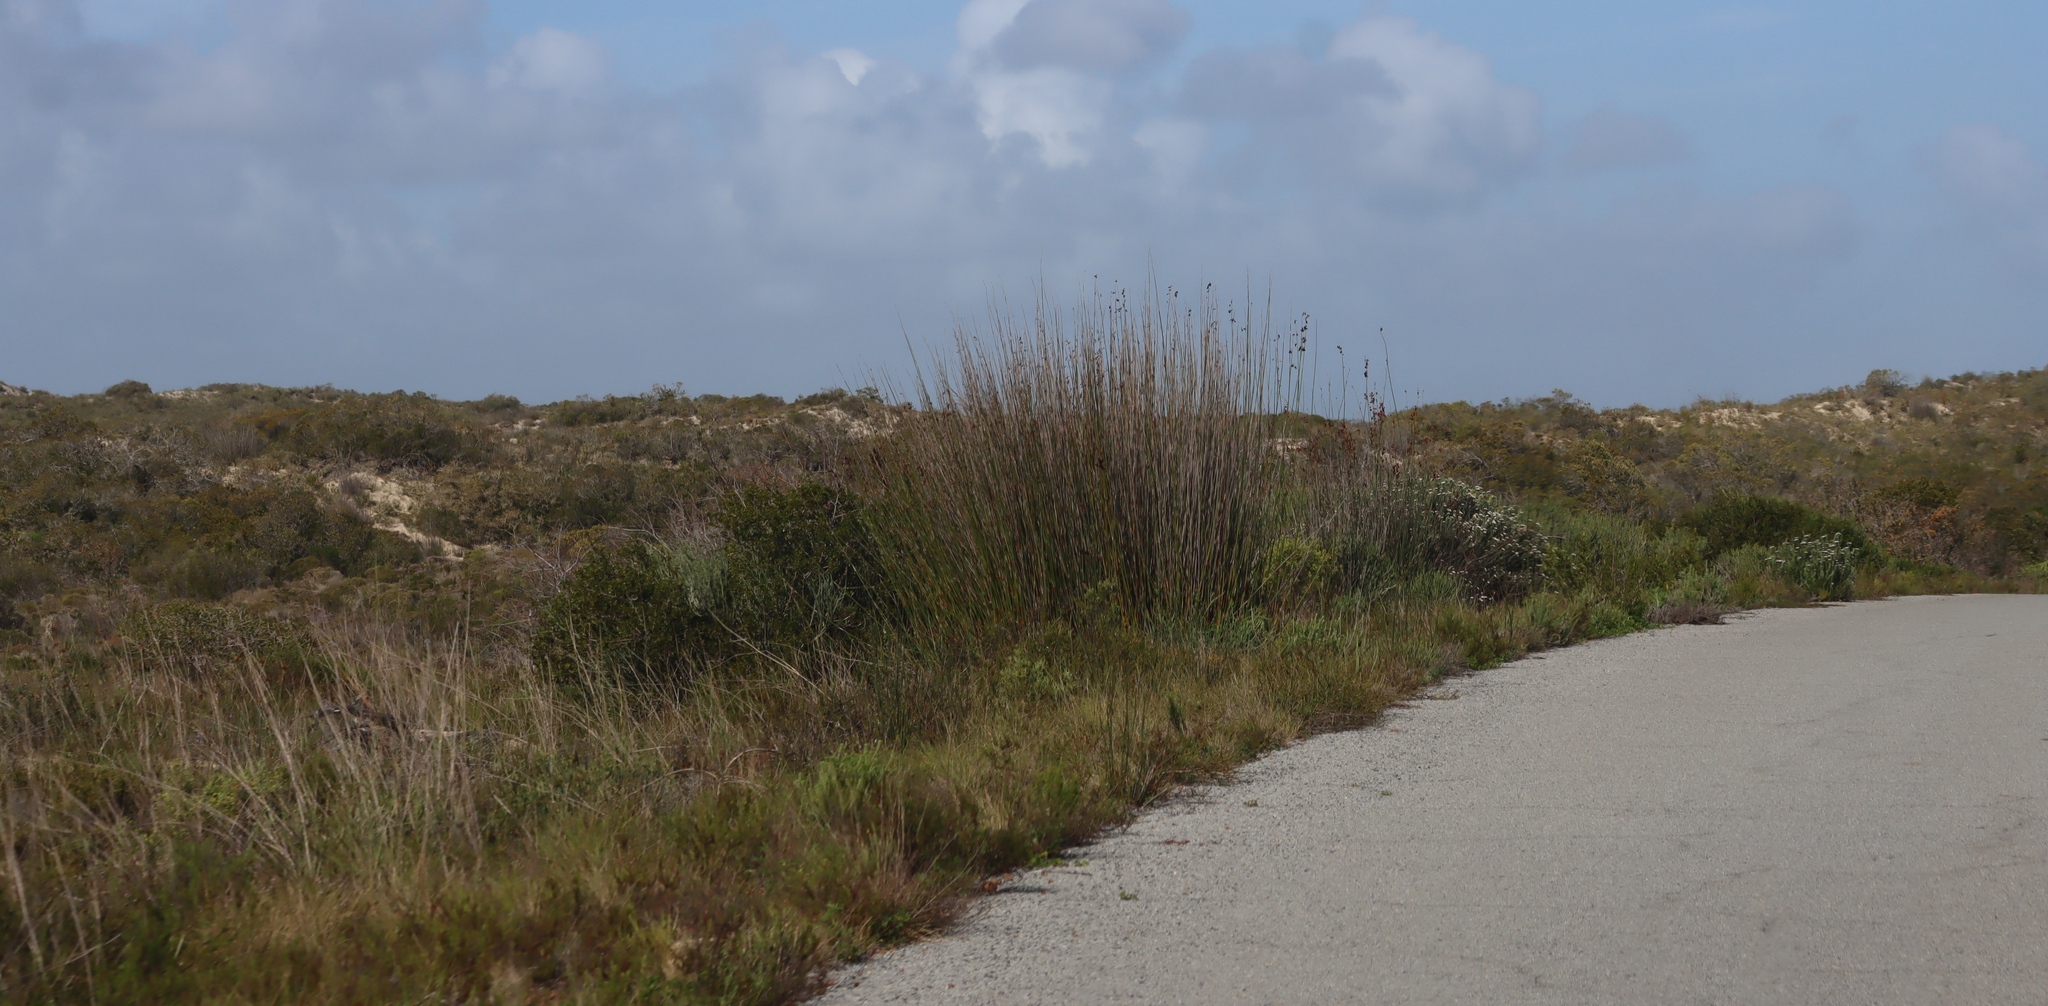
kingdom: Plantae
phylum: Tracheophyta
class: Liliopsida
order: Poales
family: Restionaceae
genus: Thamnochortus
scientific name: Thamnochortus spicigerus
